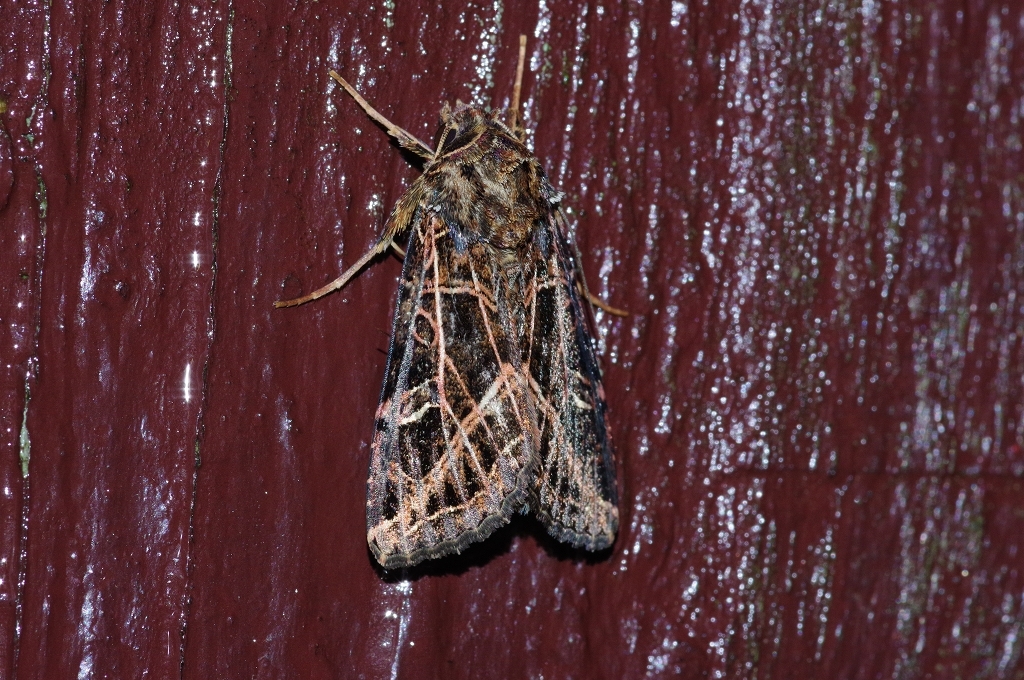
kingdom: Animalia
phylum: Arthropoda
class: Insecta
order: Lepidoptera
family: Noctuidae
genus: Dictyestra
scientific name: Dictyestra dissectus
